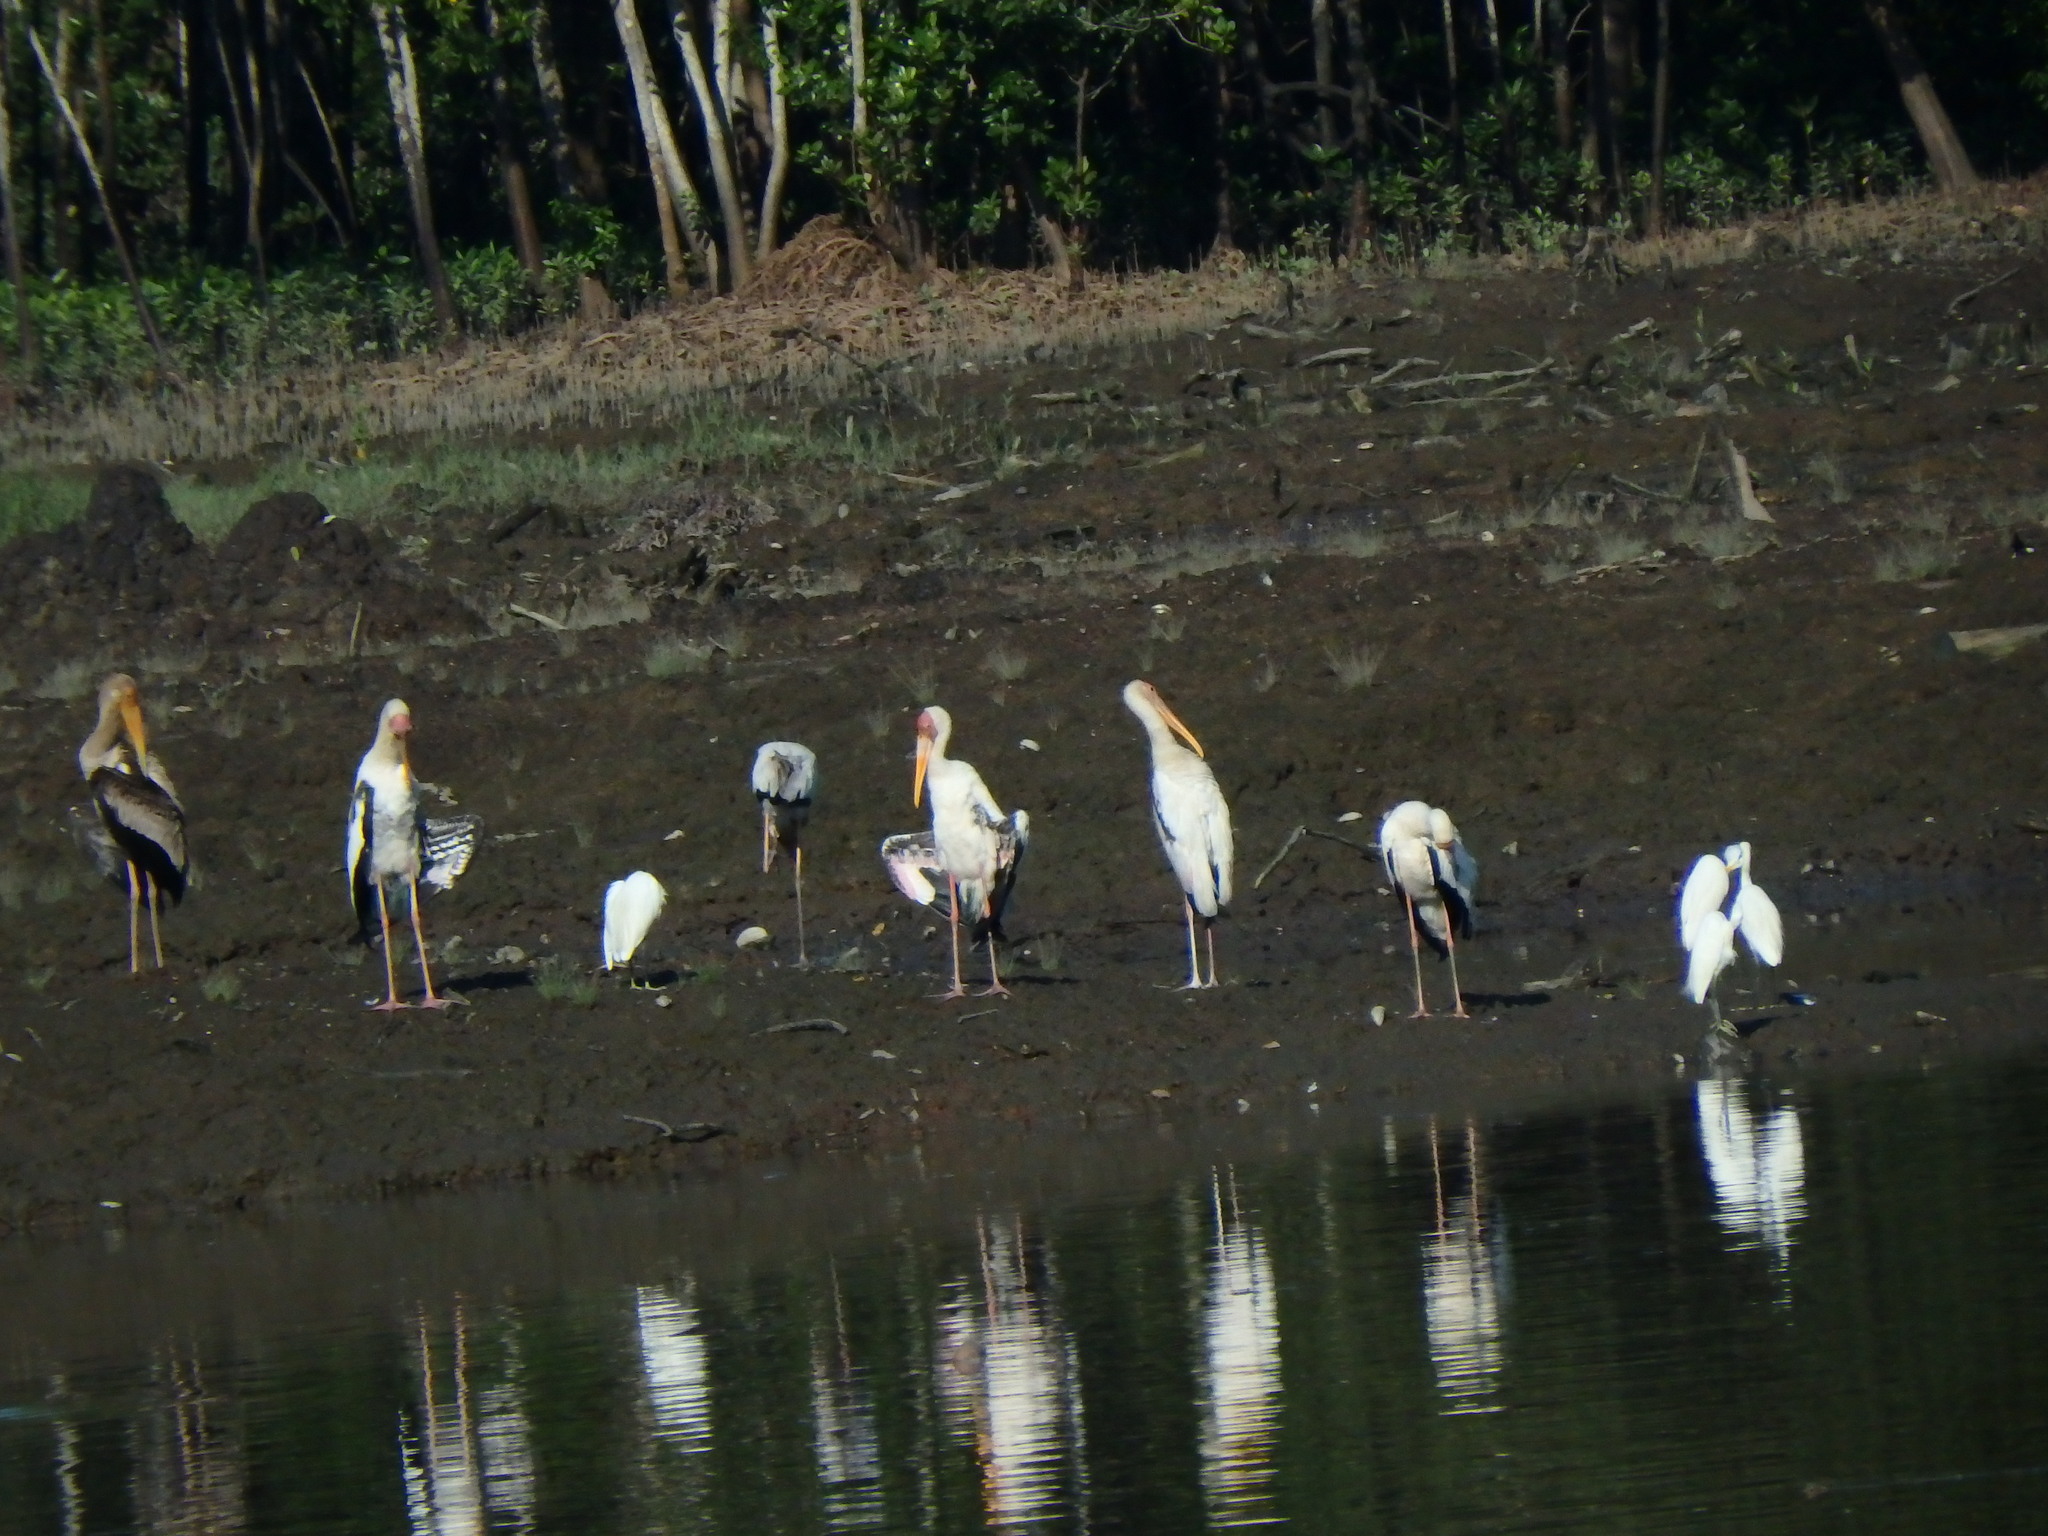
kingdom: Animalia
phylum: Chordata
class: Aves
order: Ciconiiformes
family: Ciconiidae
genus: Mycteria
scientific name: Mycteria
